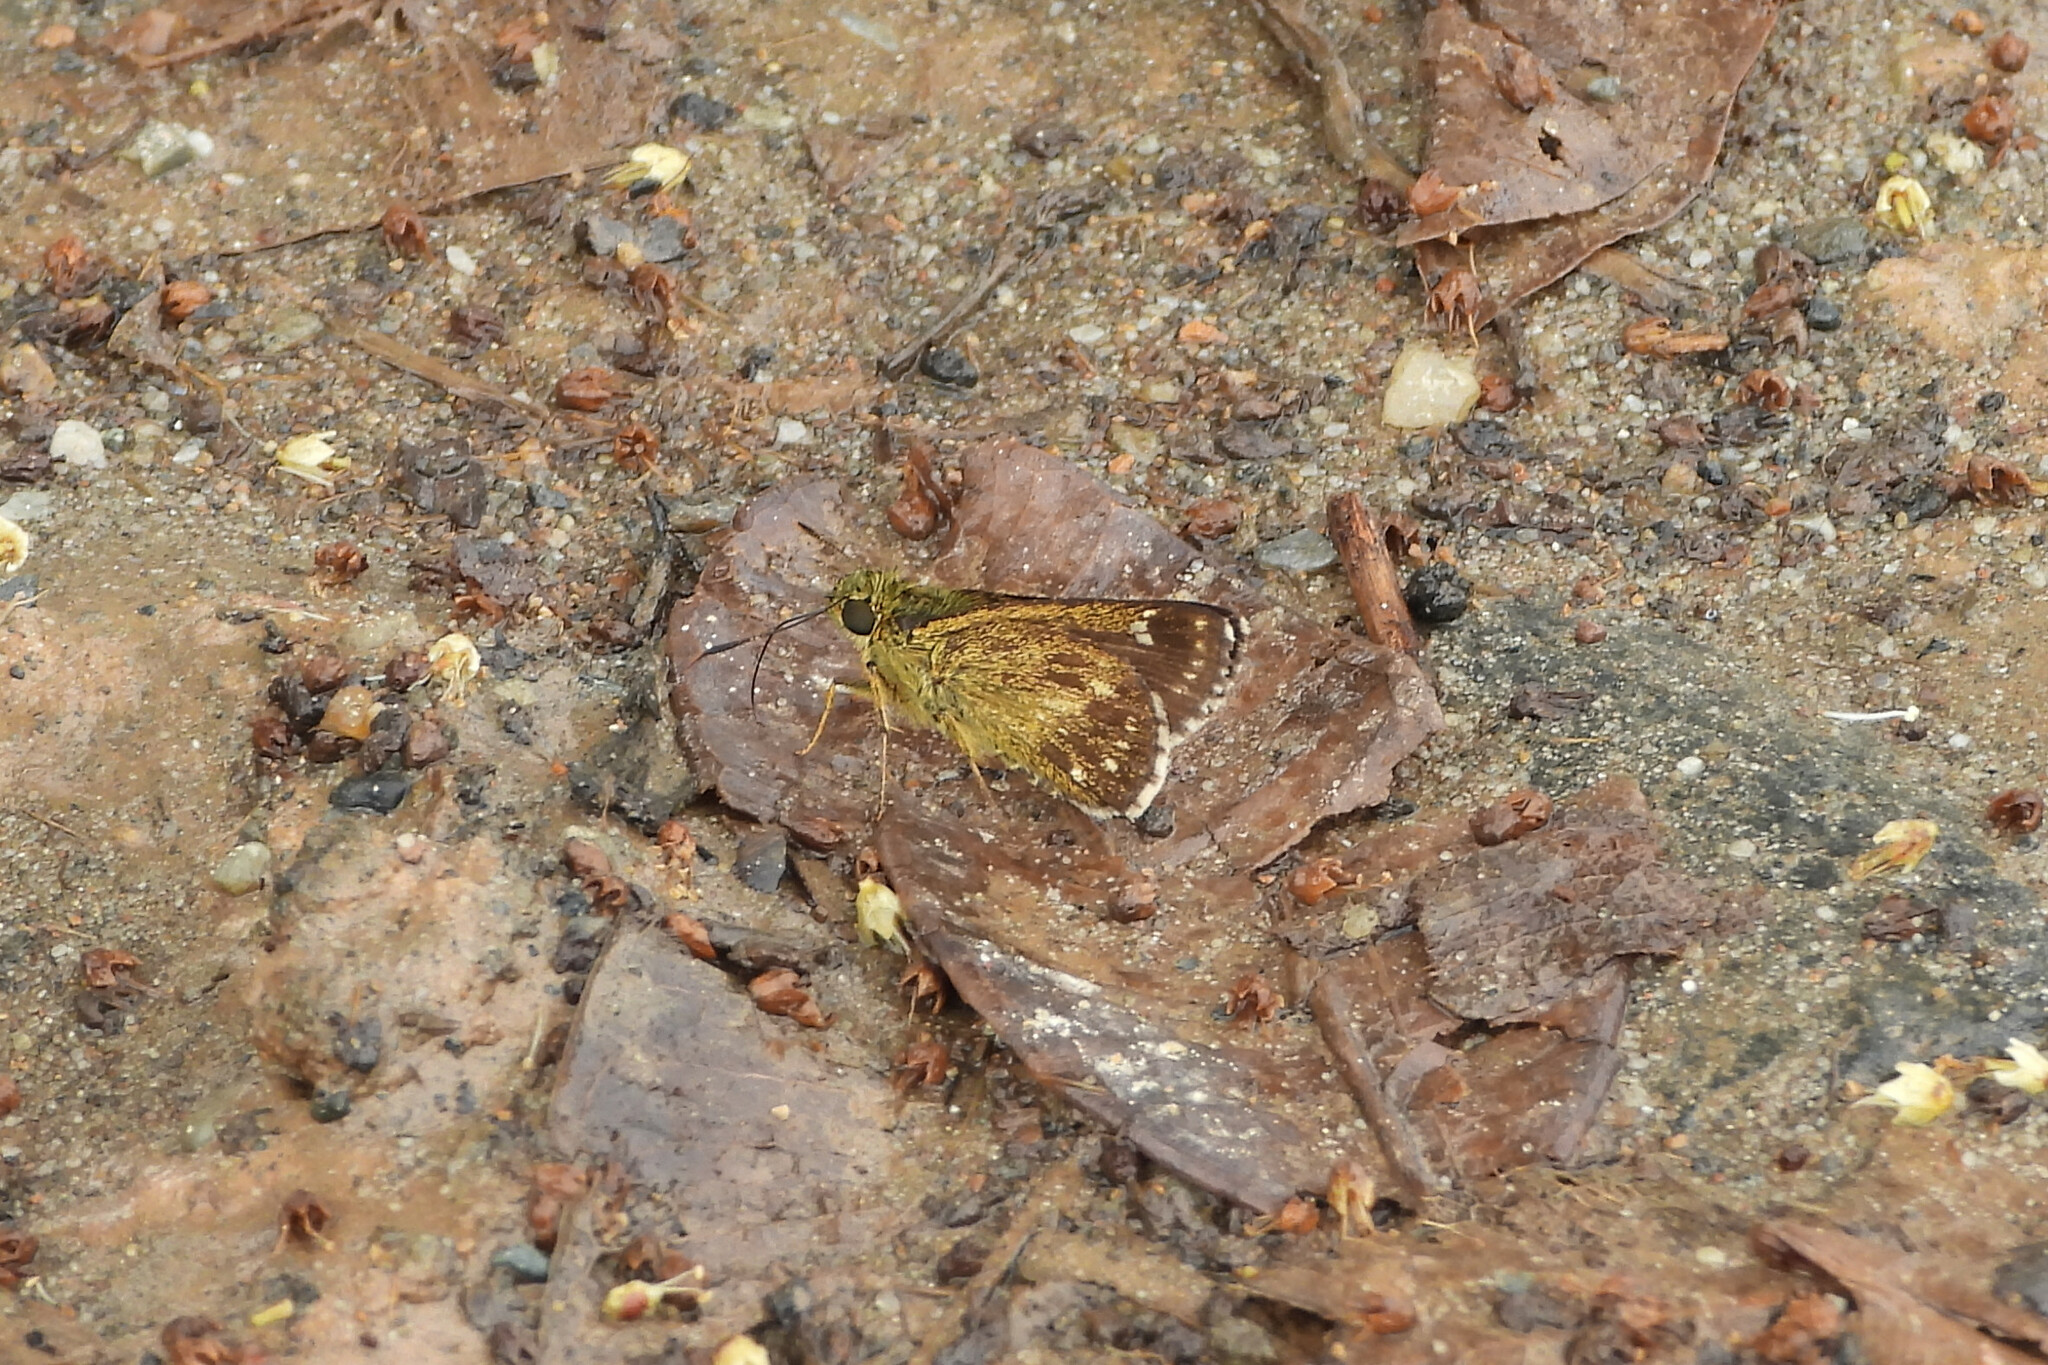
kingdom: Animalia
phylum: Arthropoda
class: Insecta
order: Lepidoptera
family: Hesperiidae
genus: Halpe
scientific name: Halpe homolea
